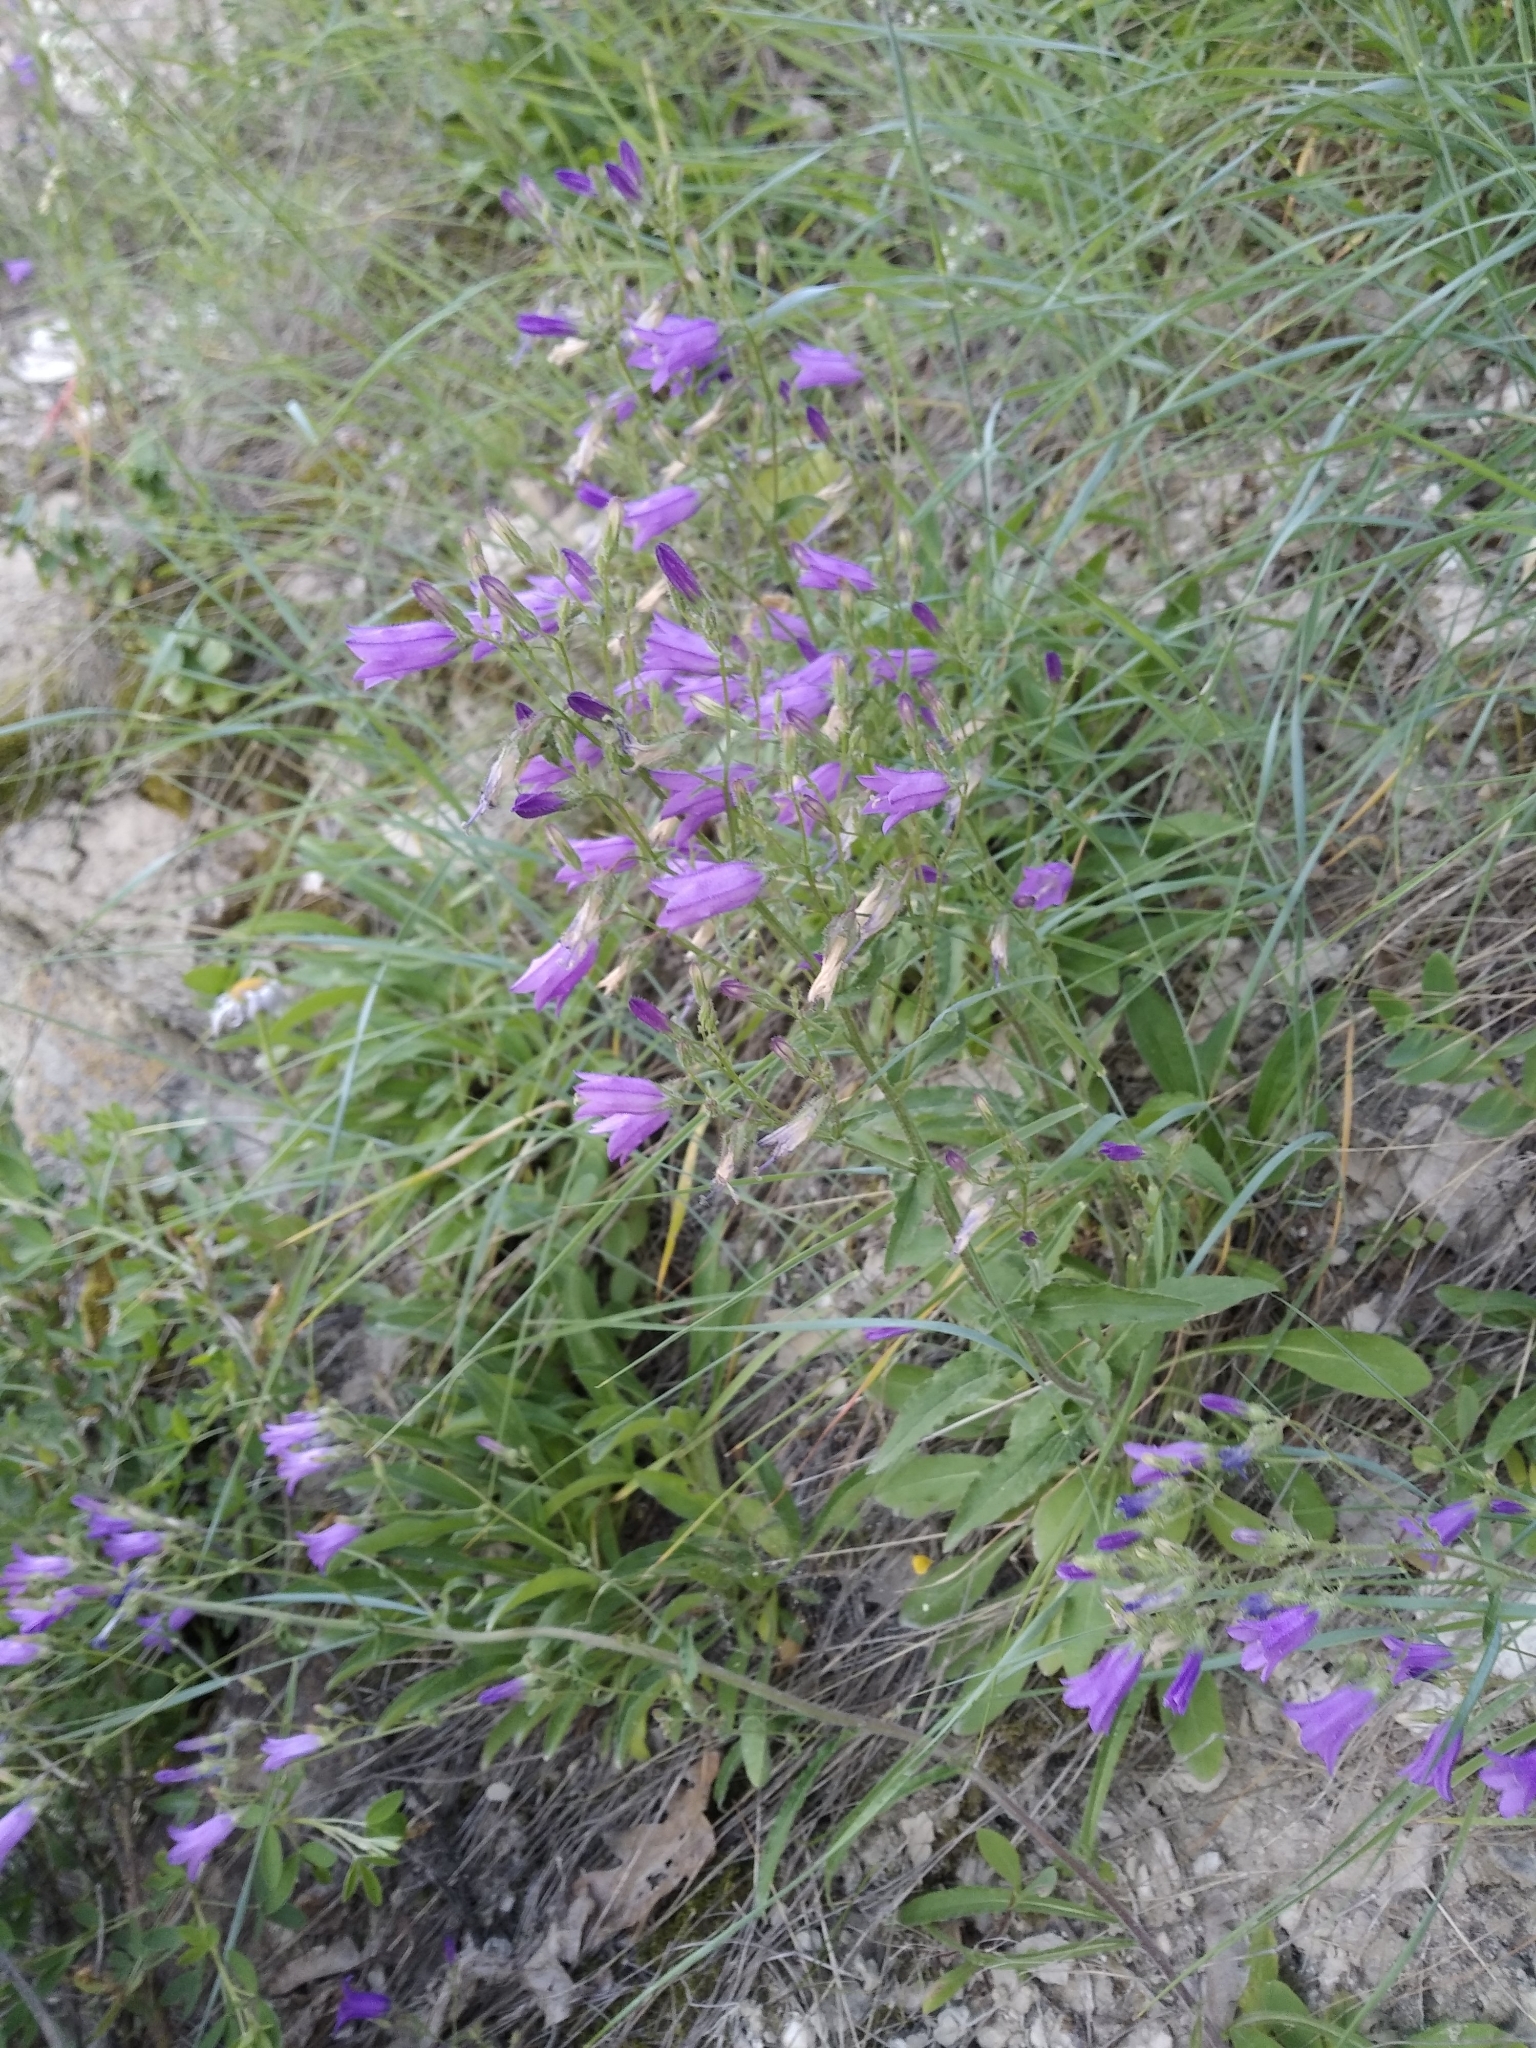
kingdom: Plantae
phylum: Tracheophyta
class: Magnoliopsida
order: Asterales
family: Campanulaceae
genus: Campanula
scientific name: Campanula sibirica
